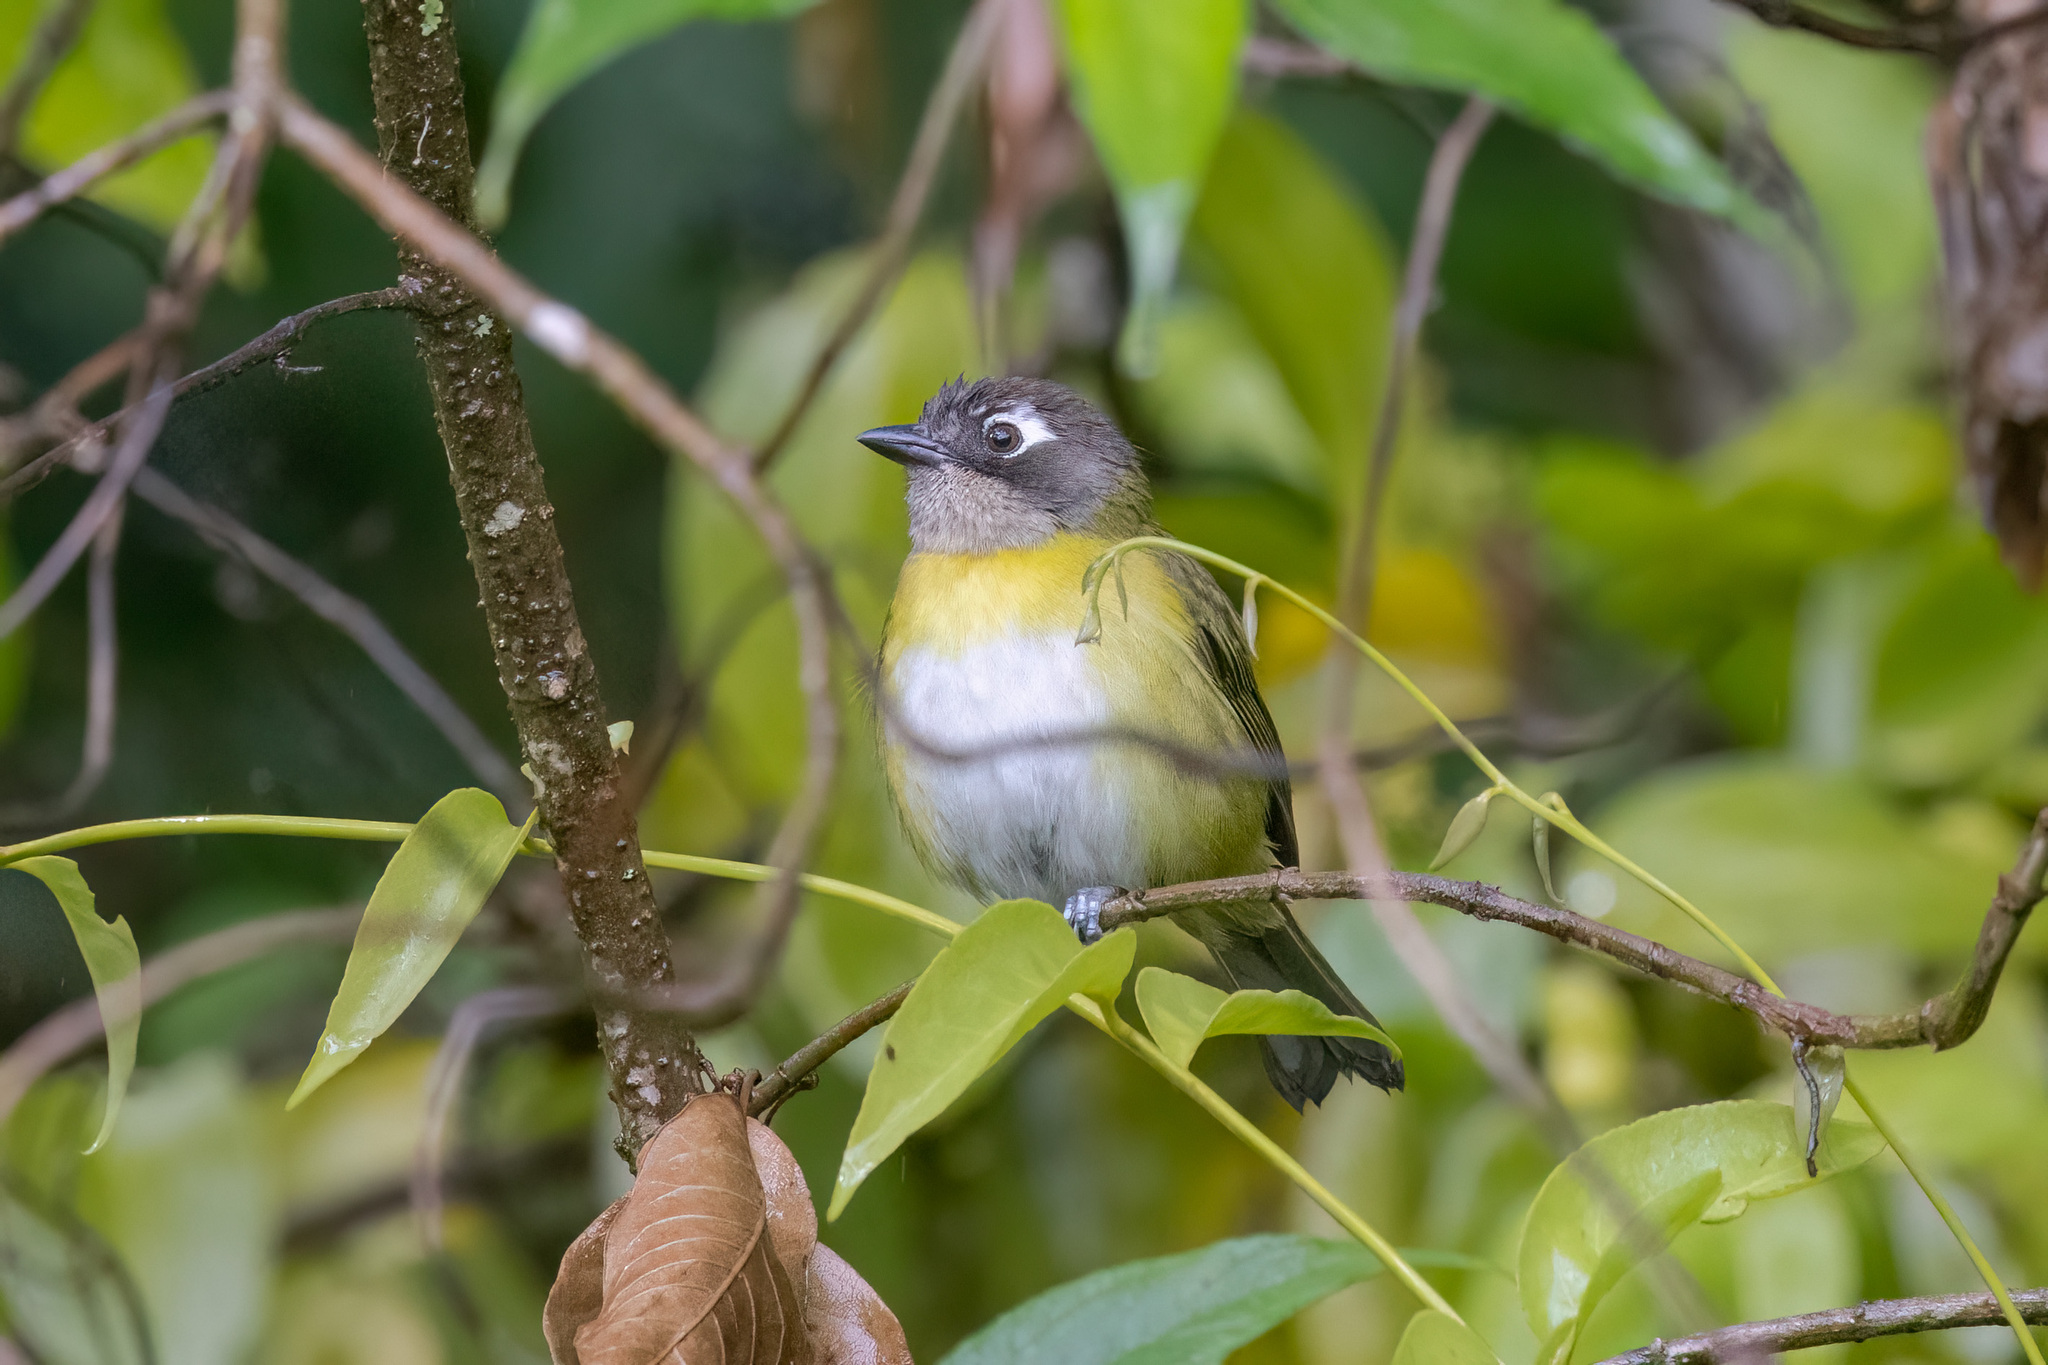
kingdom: Animalia
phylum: Chordata
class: Aves
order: Passeriformes
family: Passerellidae
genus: Chlorospingus
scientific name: Chlorospingus flavopectus
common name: Common chlorospingus
